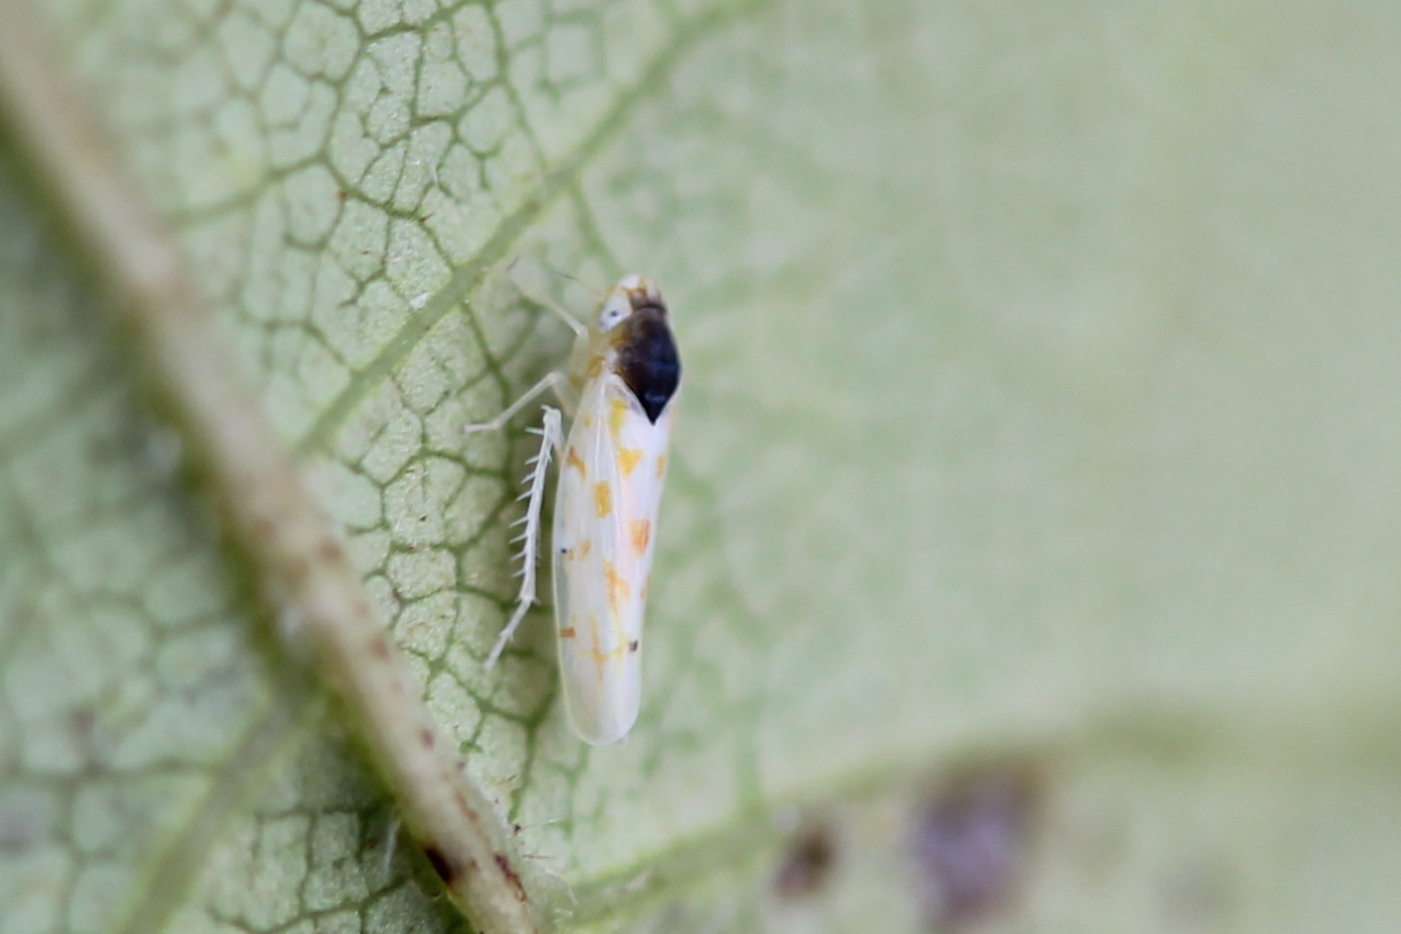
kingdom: Animalia
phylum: Arthropoda
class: Insecta
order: Hemiptera
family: Cicadellidae
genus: Eratoneura
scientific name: Eratoneura ardens
